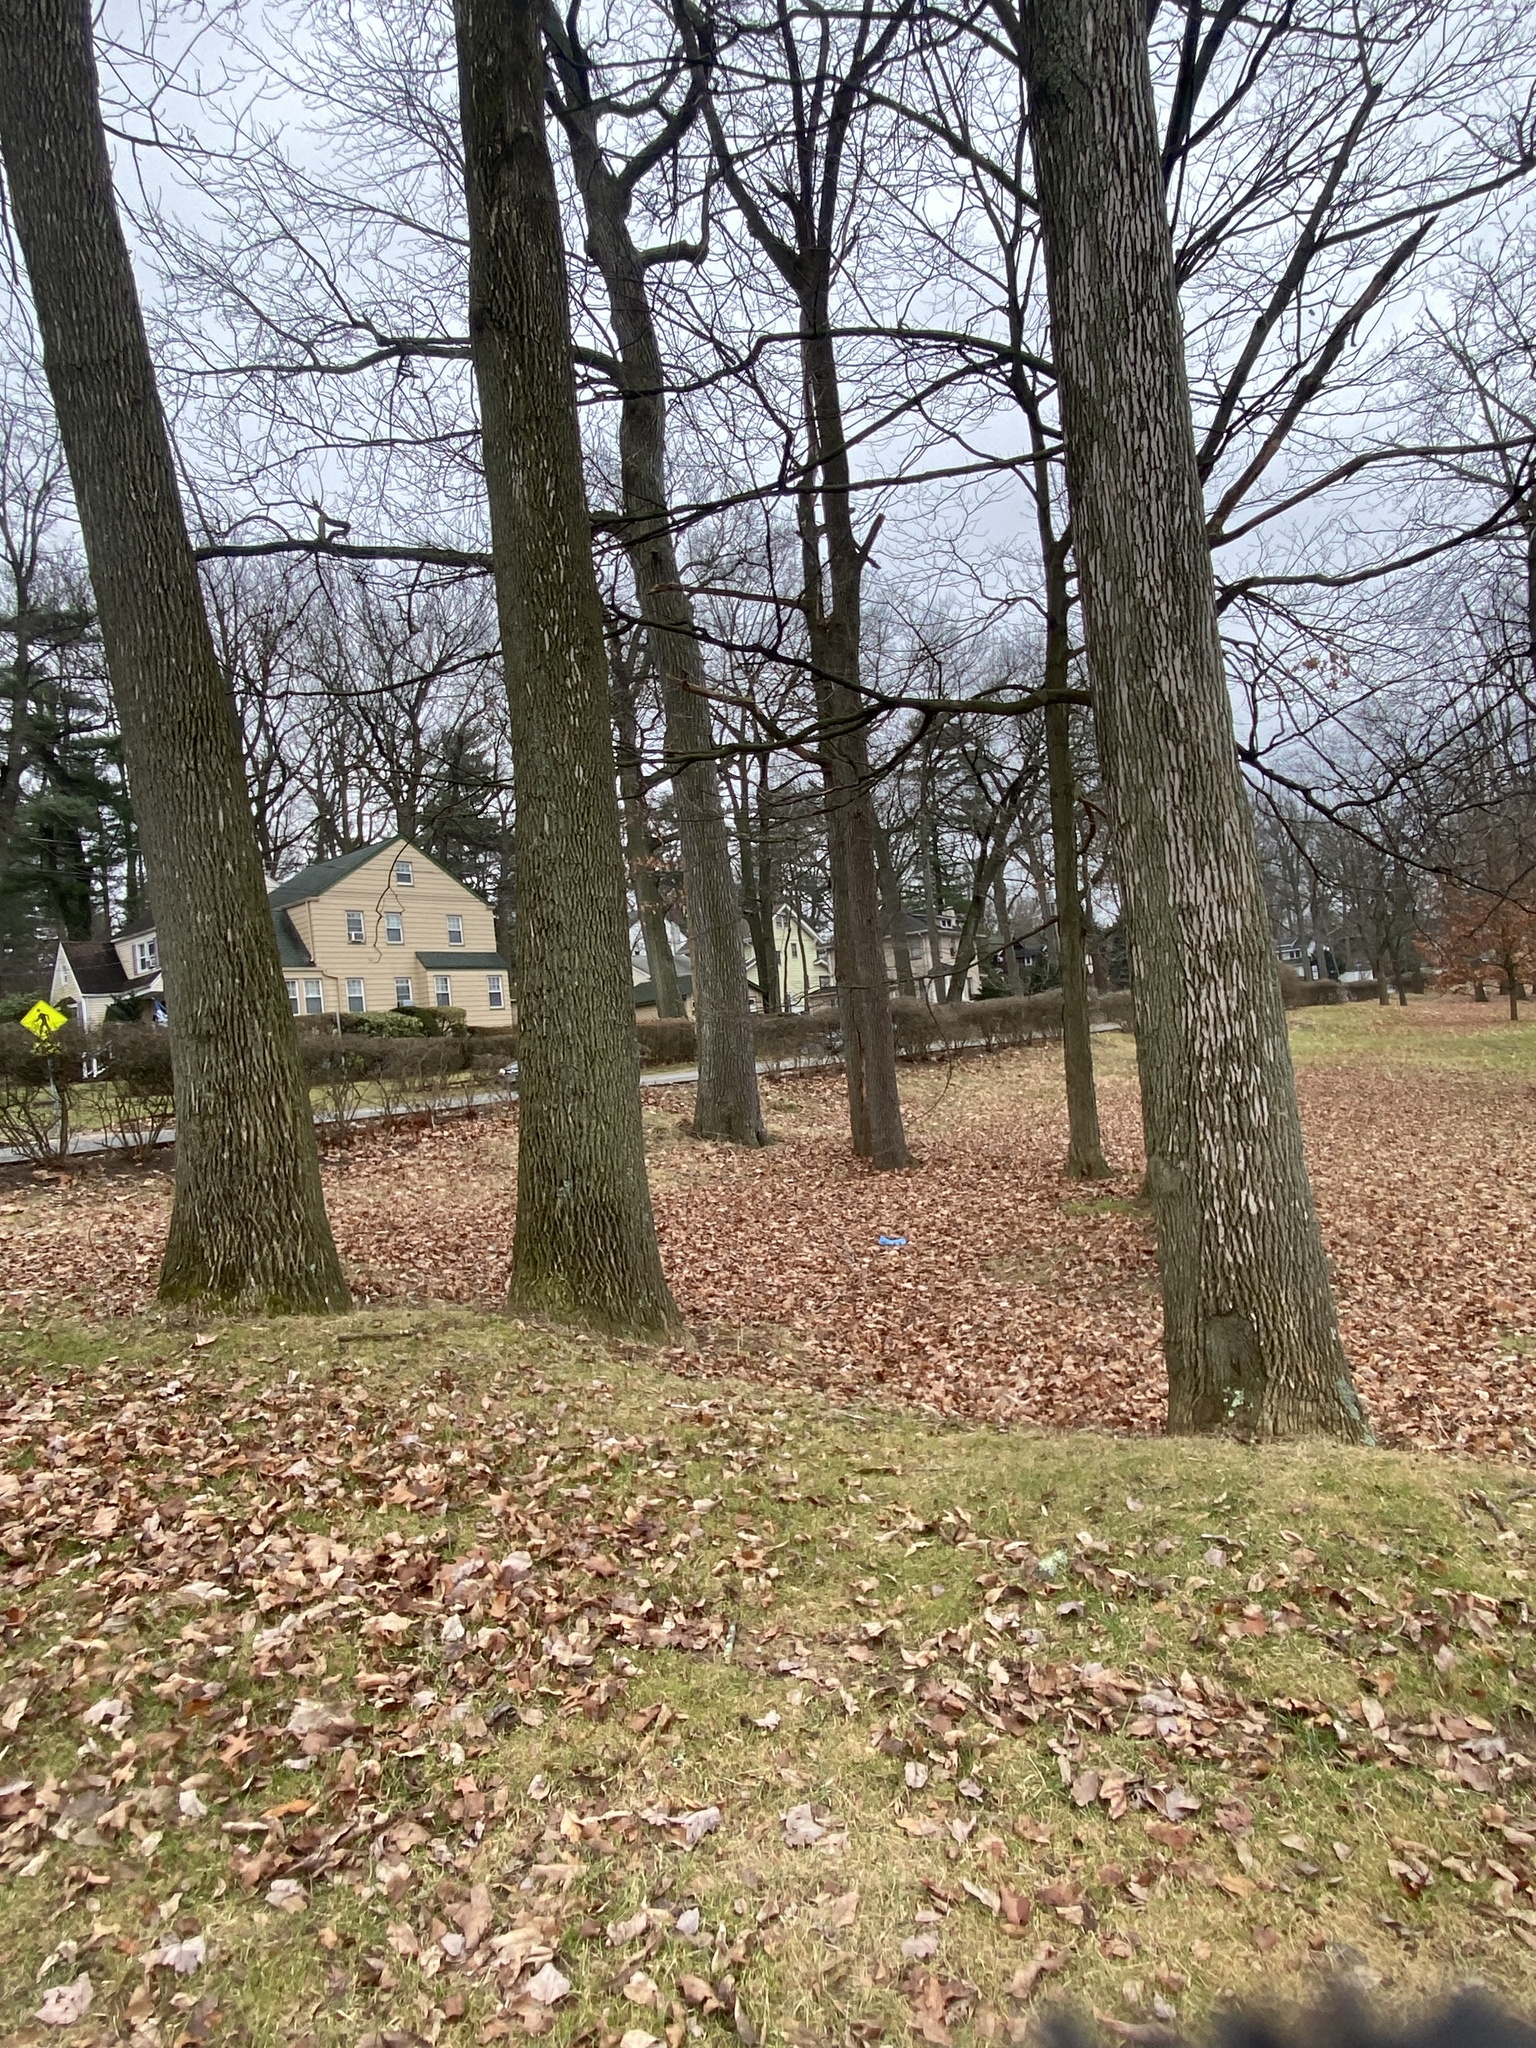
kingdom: Animalia
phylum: Arthropoda
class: Insecta
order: Coleoptera
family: Buprestidae
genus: Agrilus
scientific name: Agrilus planipennis
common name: Emerald ash borer
